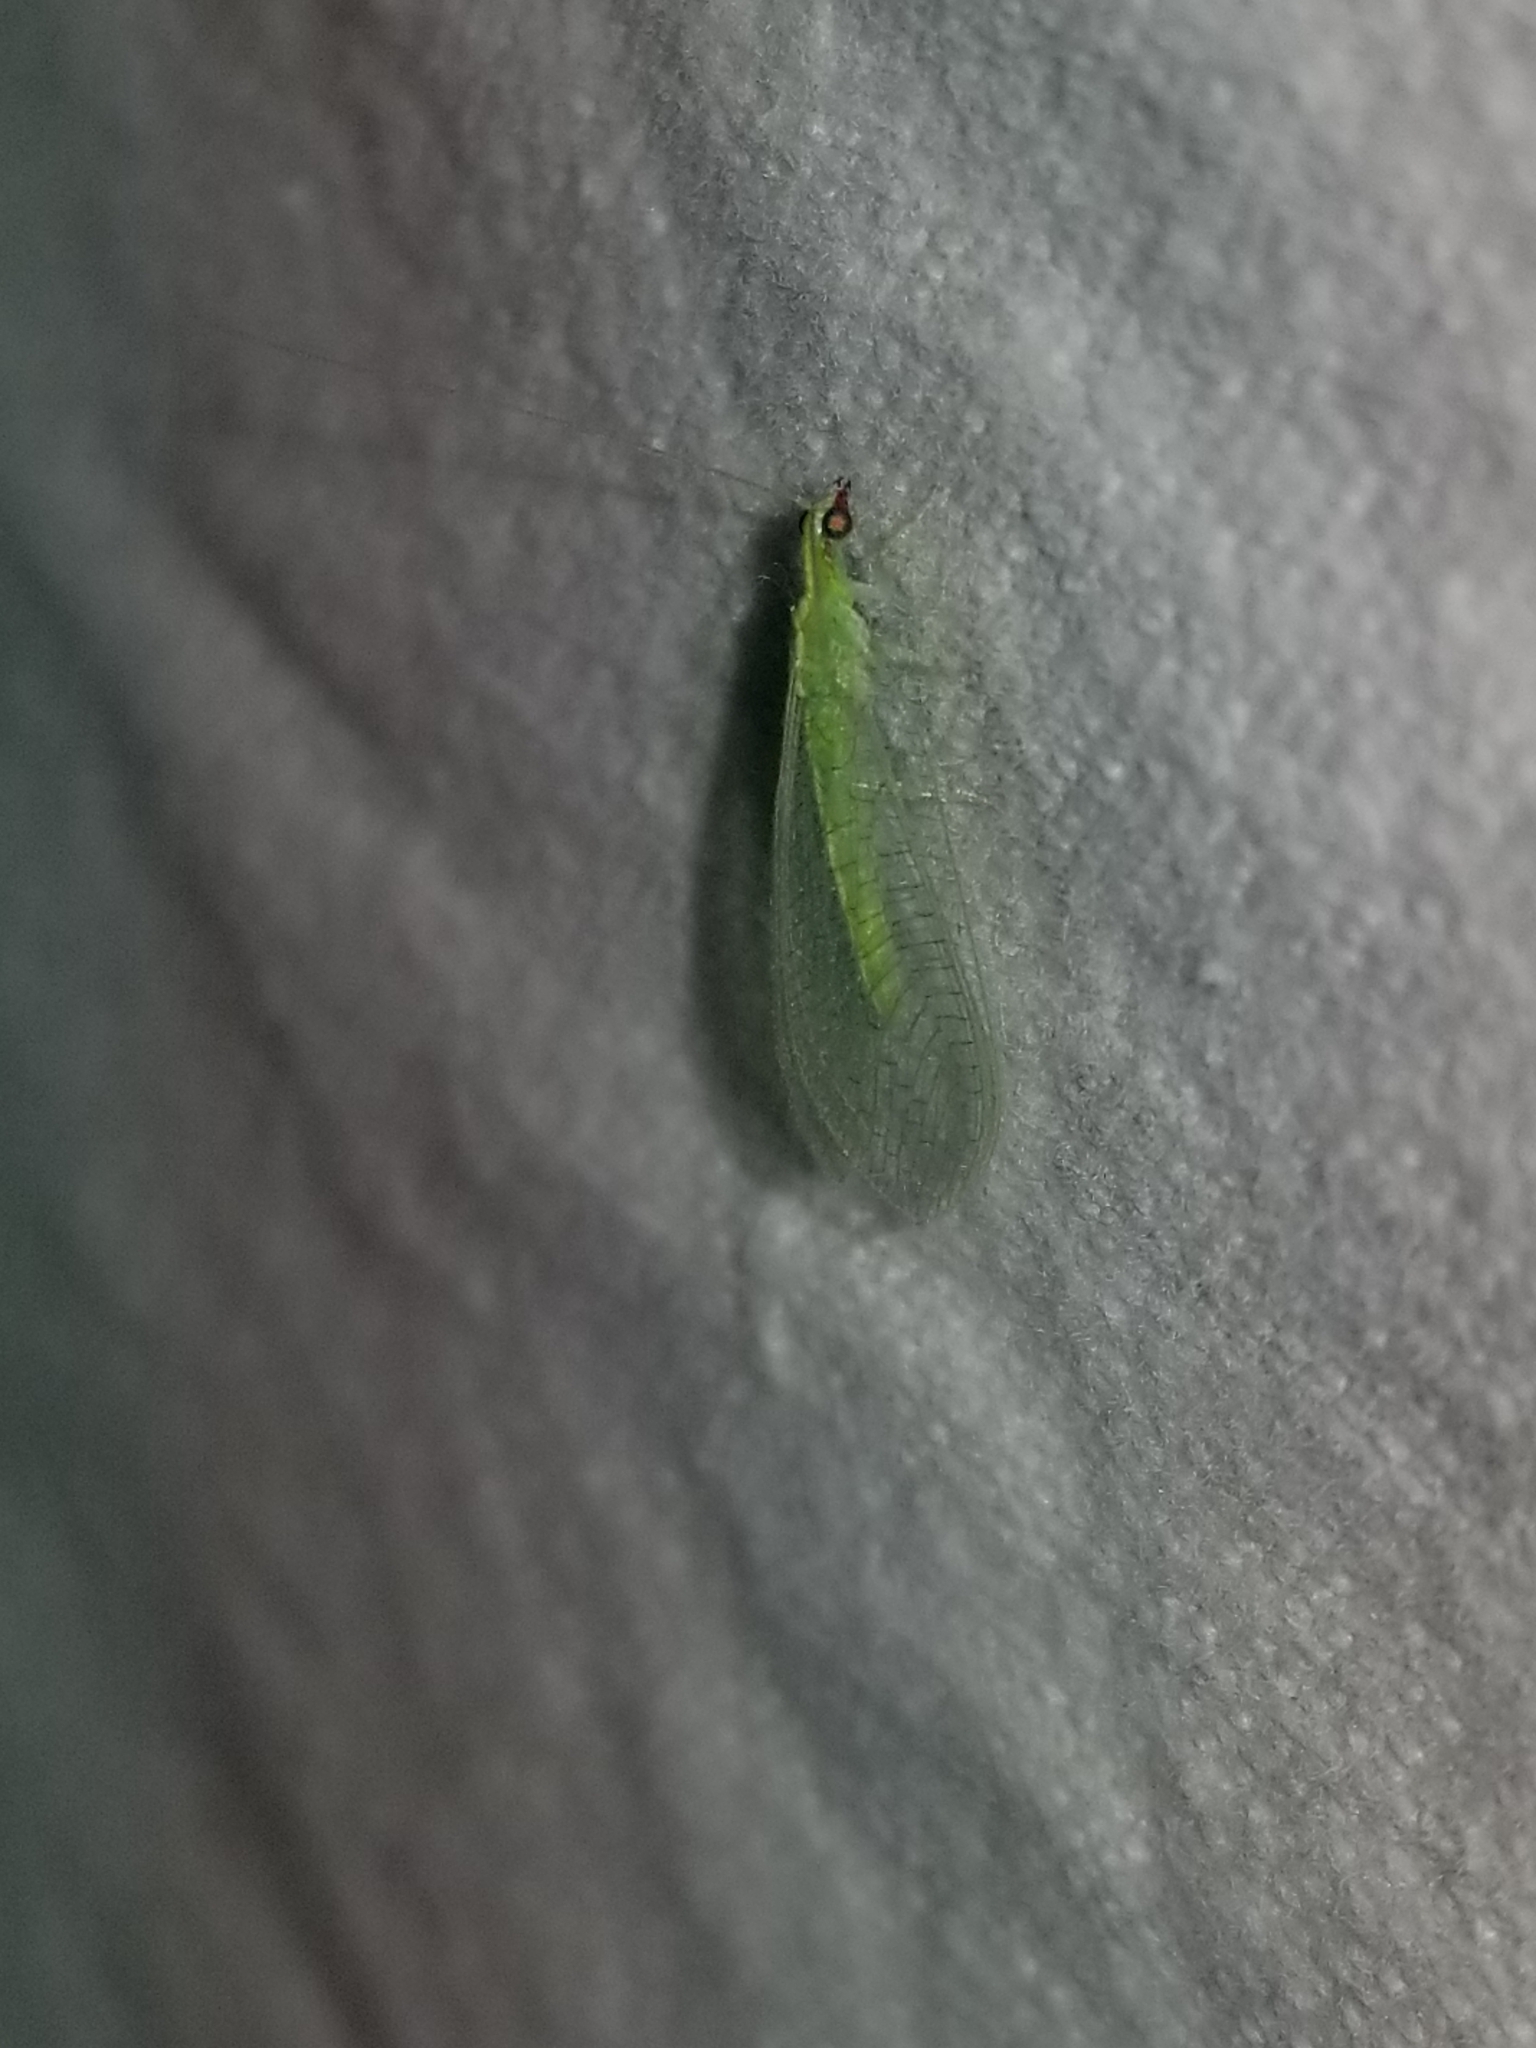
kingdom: Animalia
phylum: Arthropoda
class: Insecta
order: Neuroptera
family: Chrysopidae
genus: Chrysoperla
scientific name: Chrysoperla rufilabris
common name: Red-lipped green lacewing
